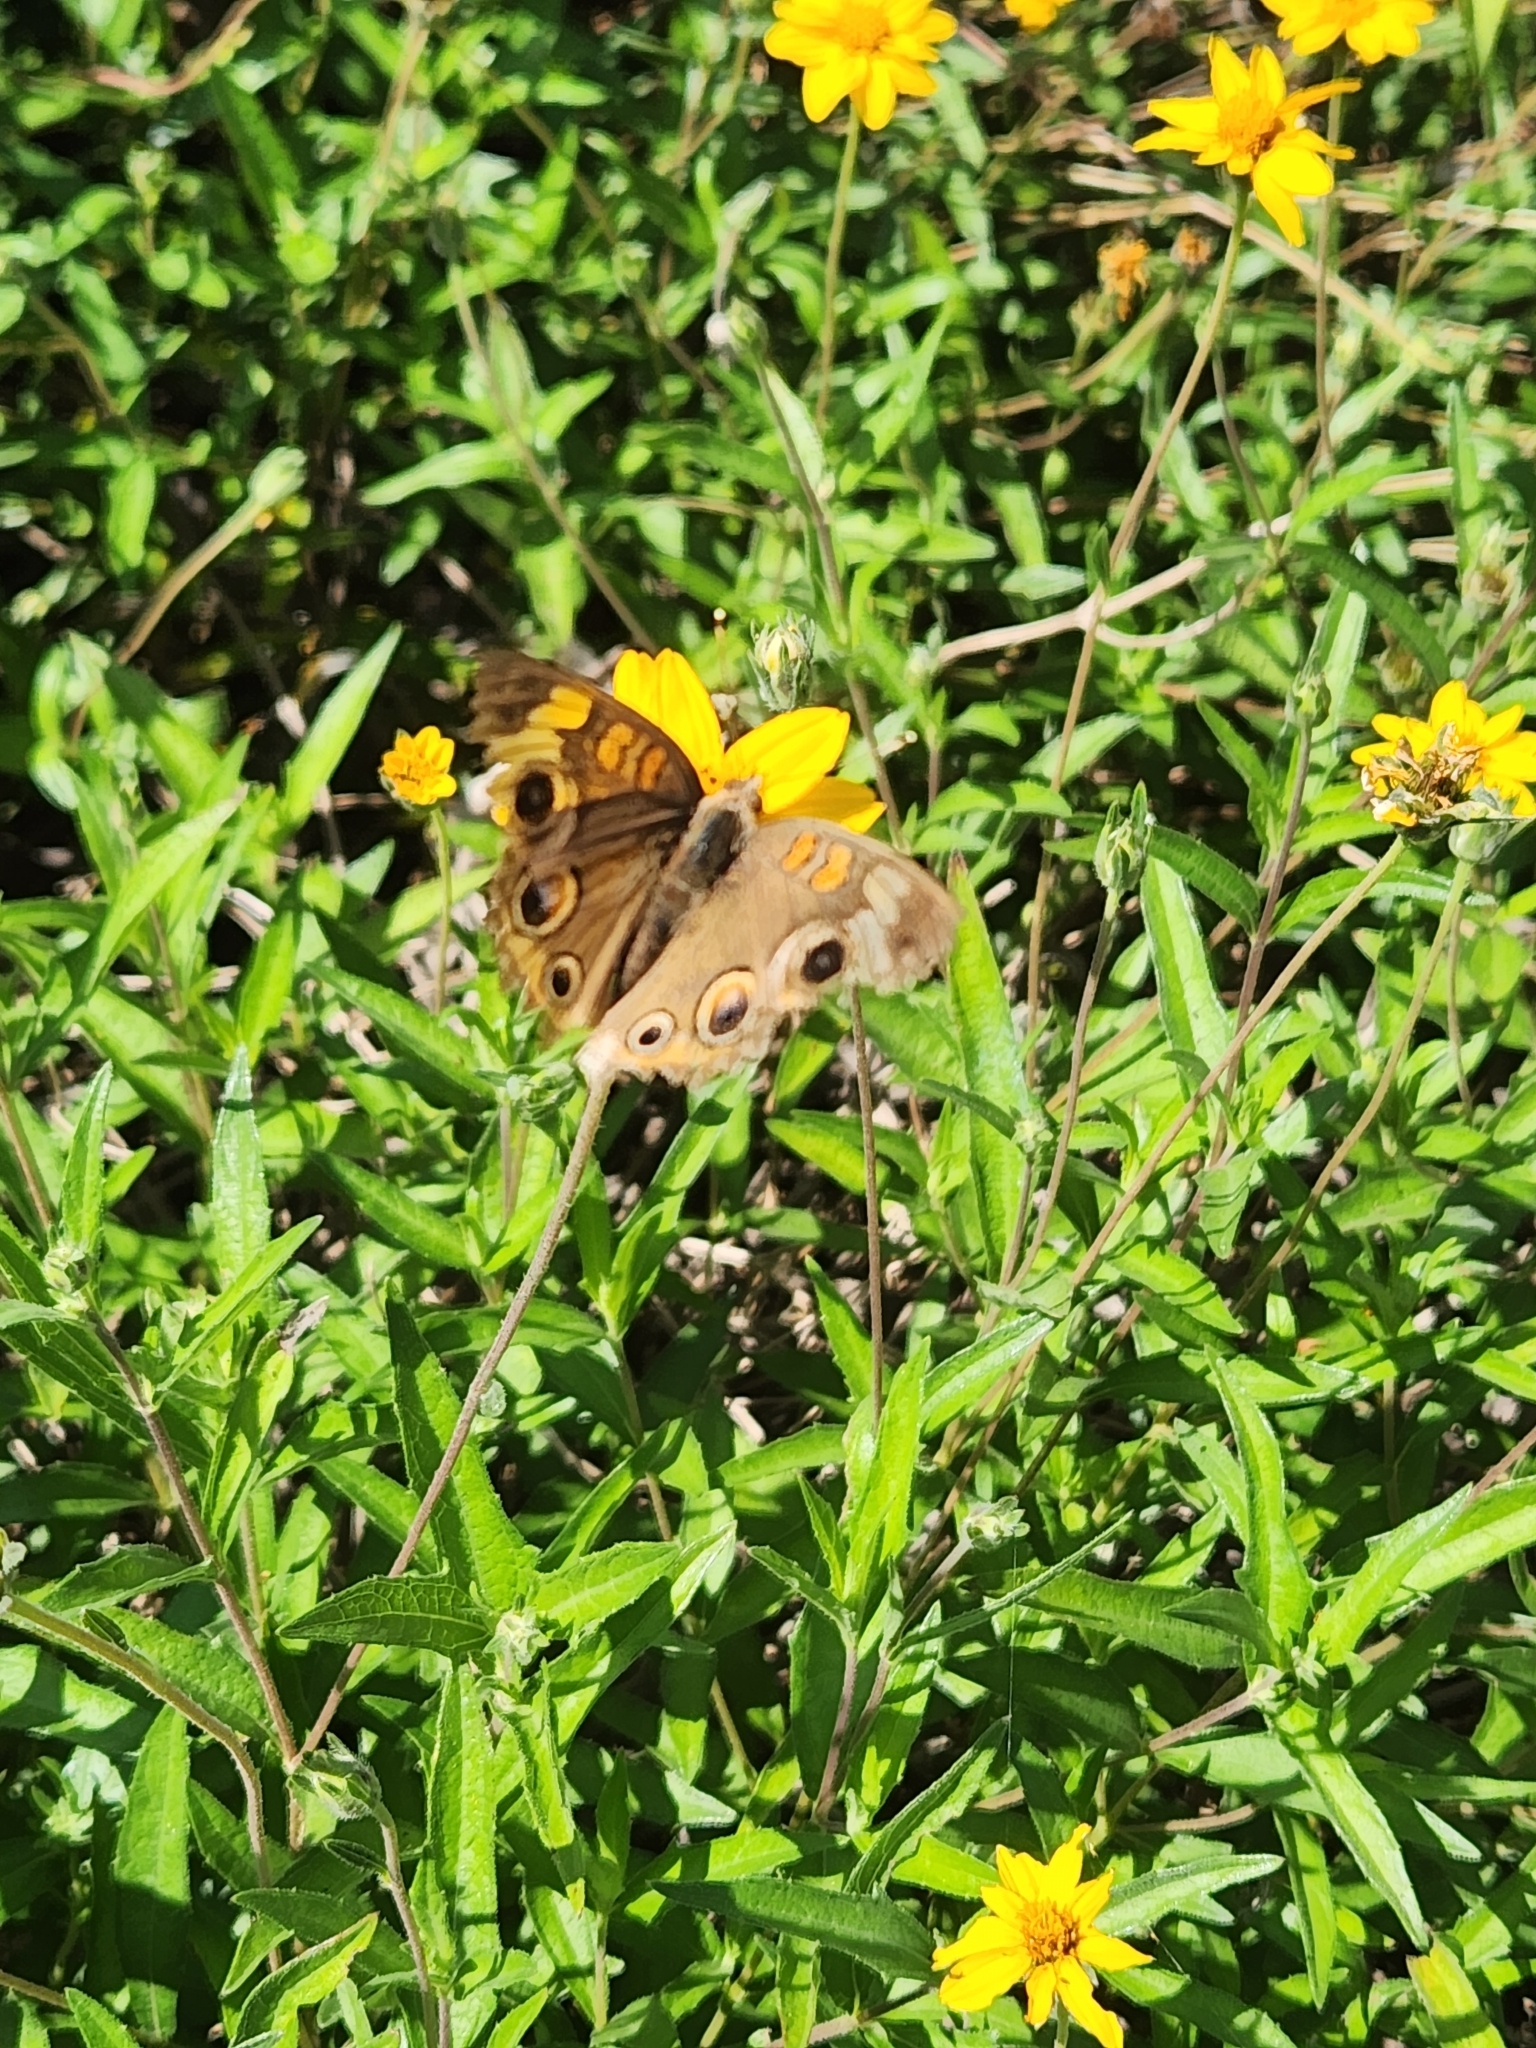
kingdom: Animalia
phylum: Arthropoda
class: Insecta
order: Lepidoptera
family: Nymphalidae
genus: Junonia
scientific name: Junonia coenia
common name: Common buckeye
